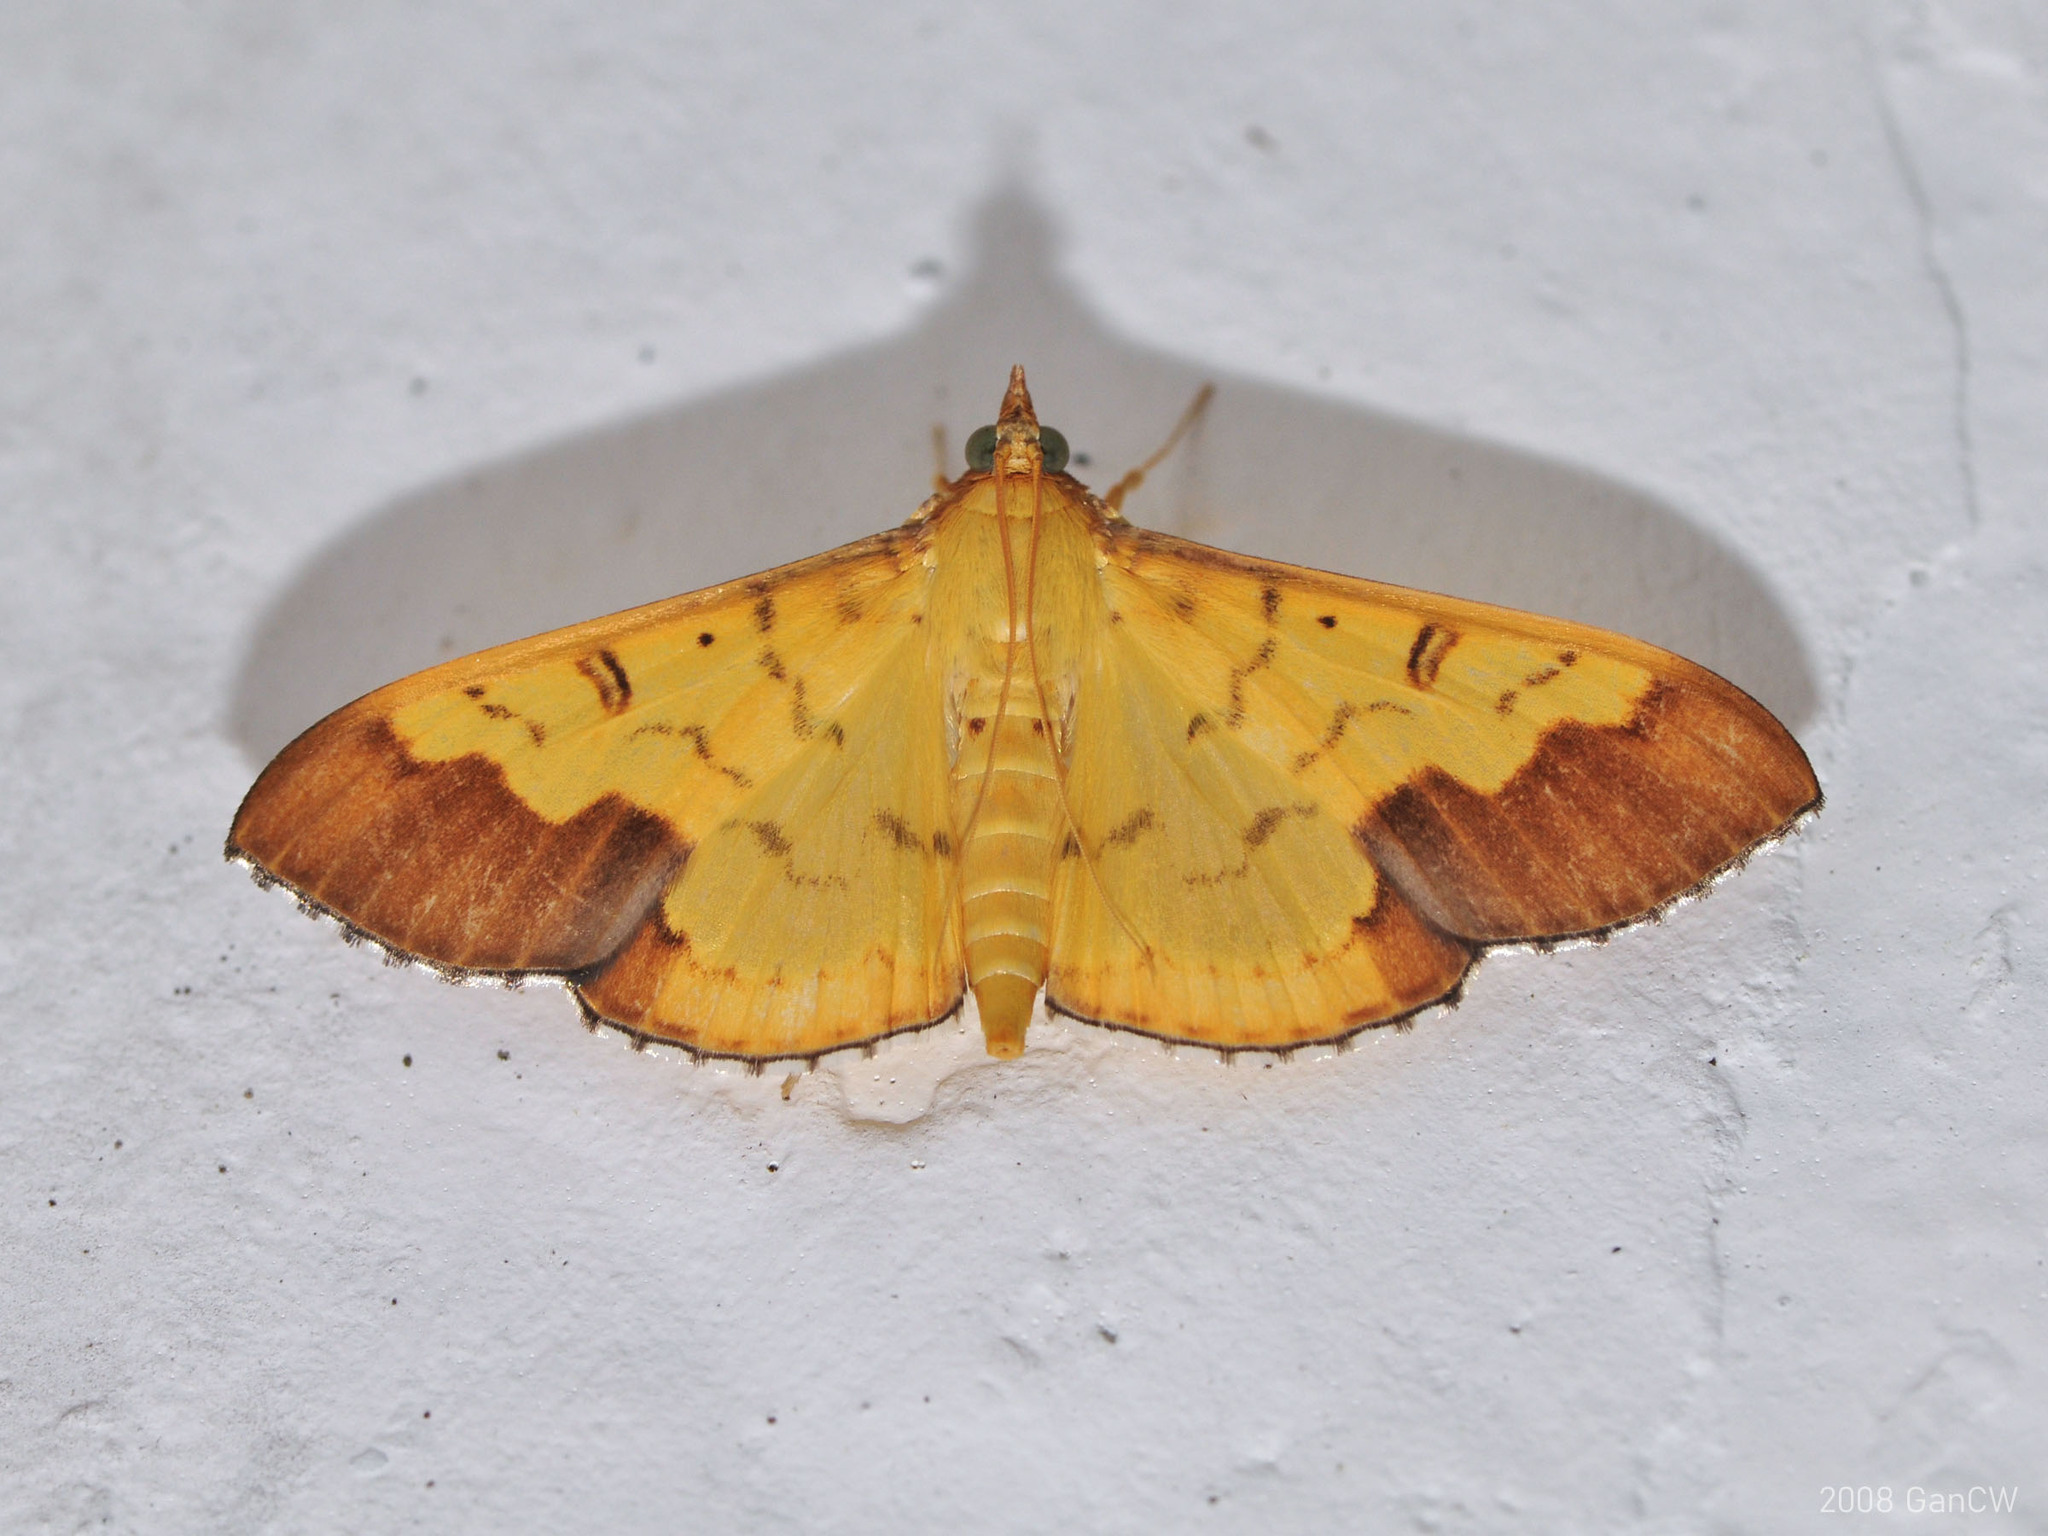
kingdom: Animalia
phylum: Arthropoda
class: Insecta
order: Lepidoptera
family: Crambidae
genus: Meroctena
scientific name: Meroctena tullalis
